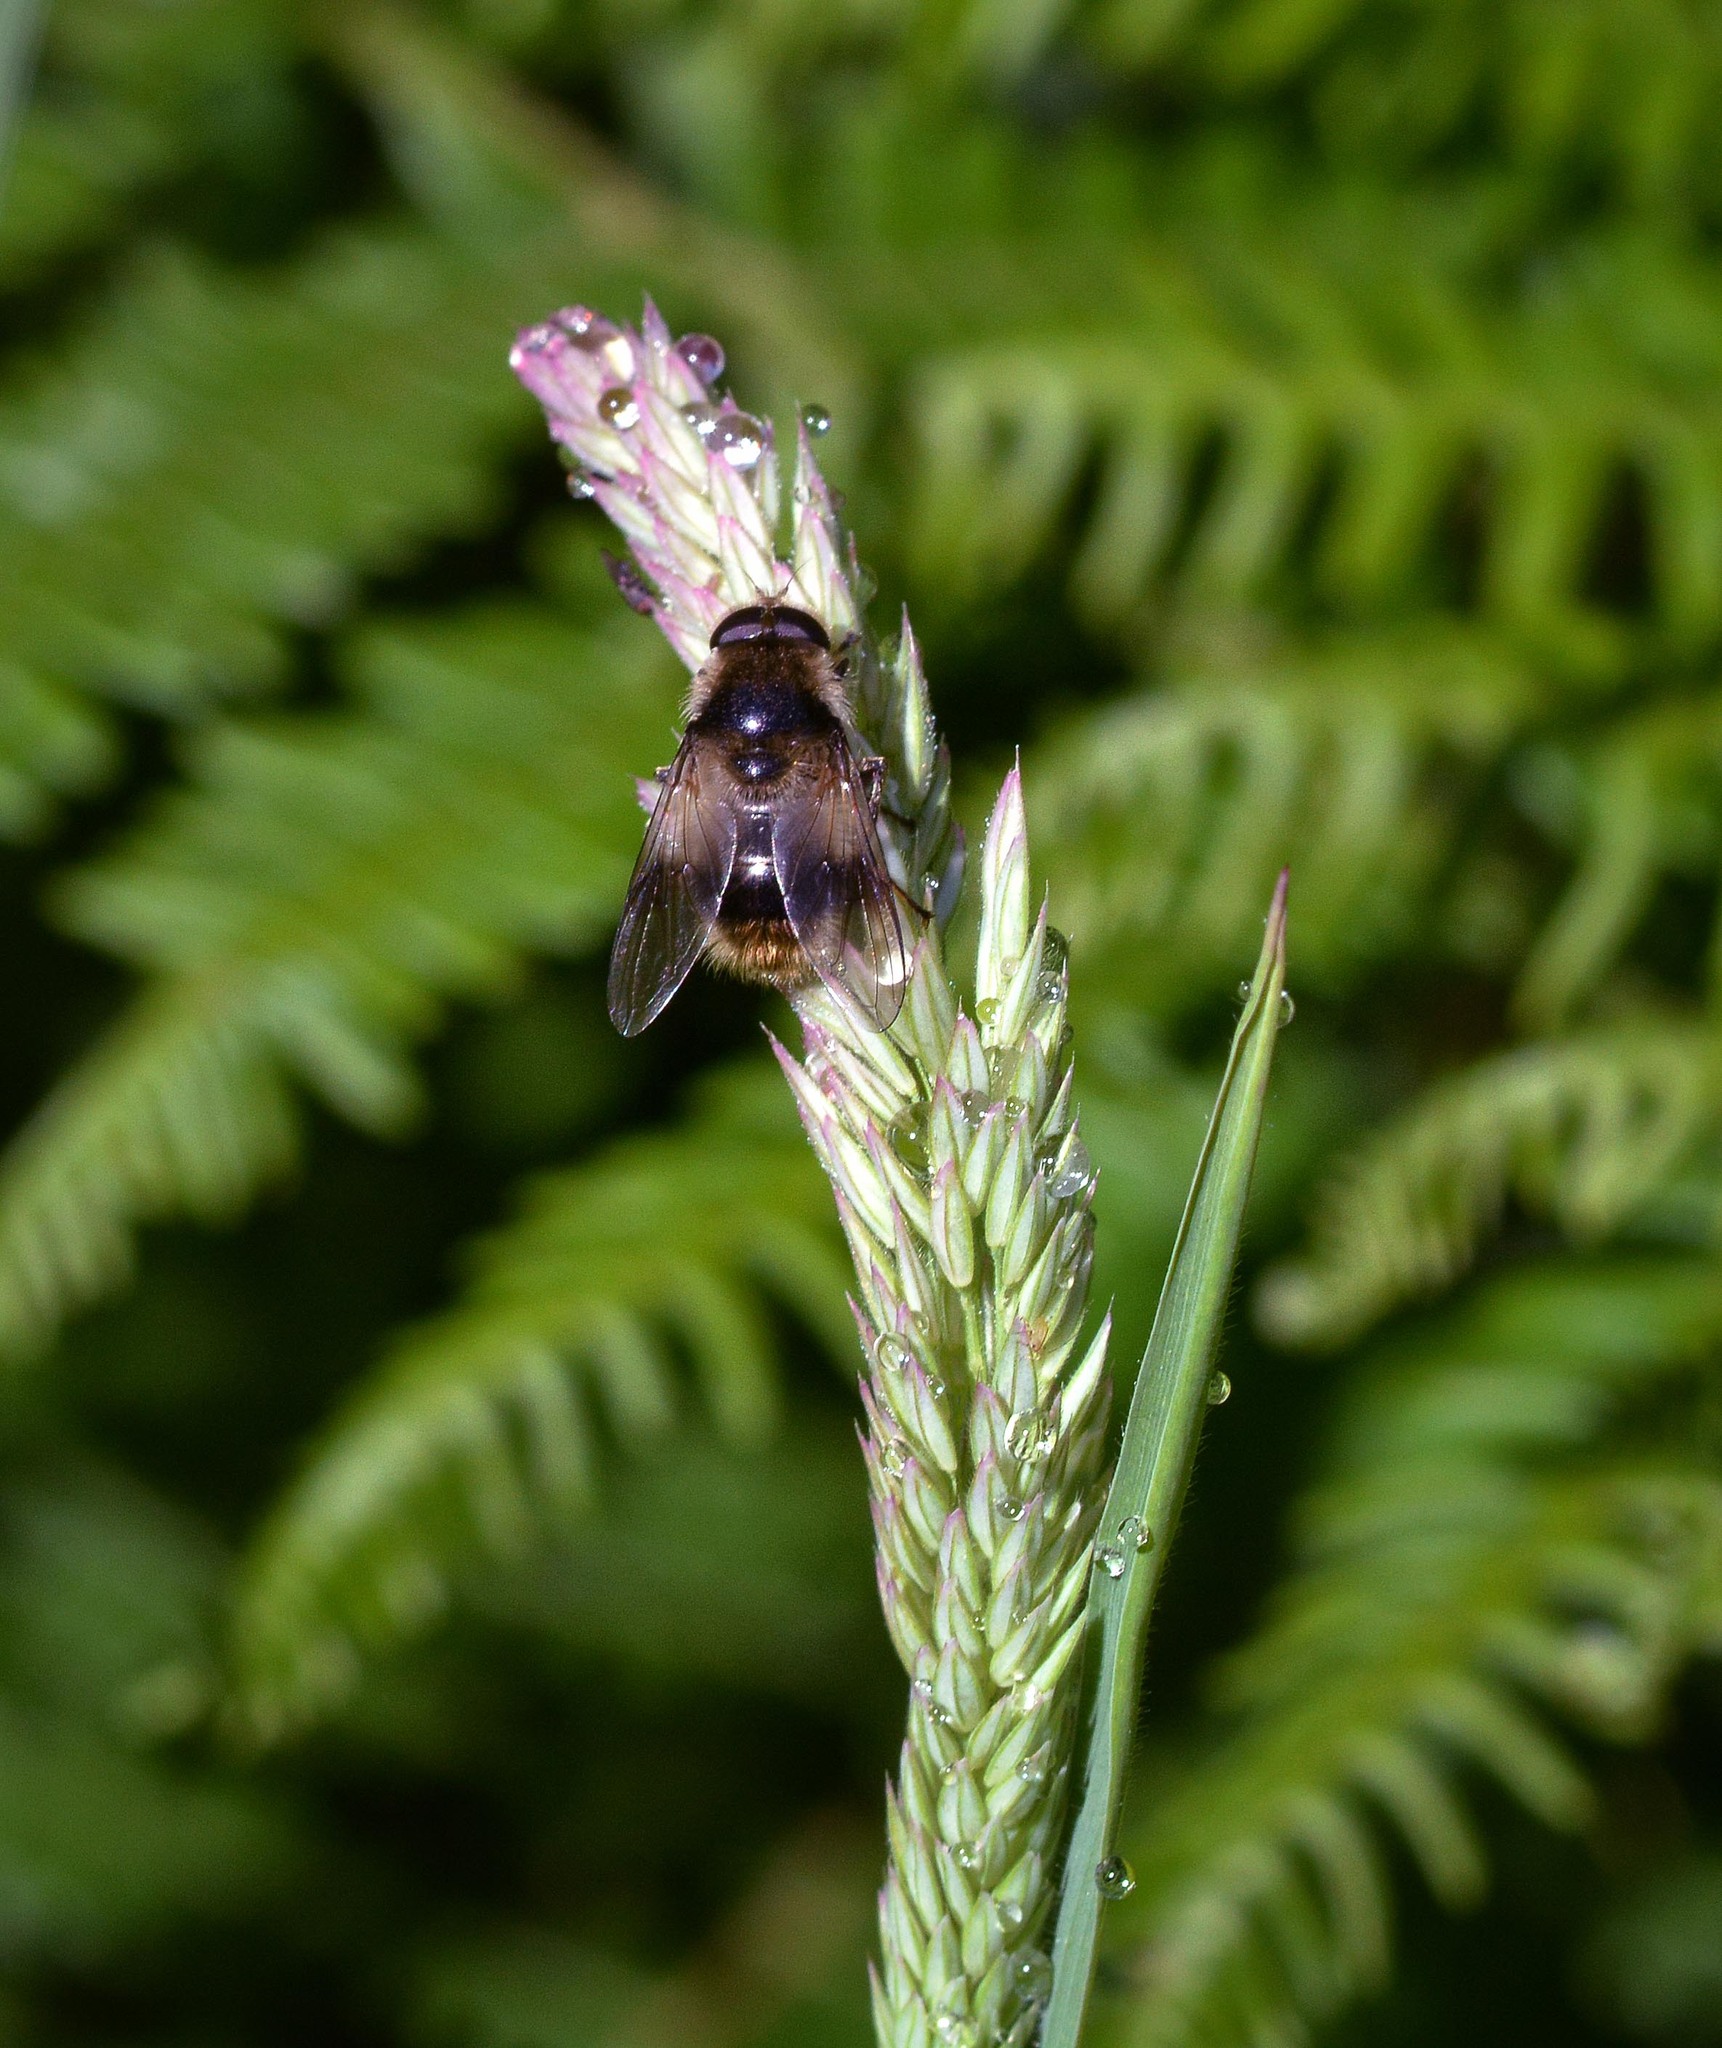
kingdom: Animalia
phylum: Arthropoda
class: Insecta
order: Diptera
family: Syrphidae
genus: Cheilosia
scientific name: Cheilosia illustrata
